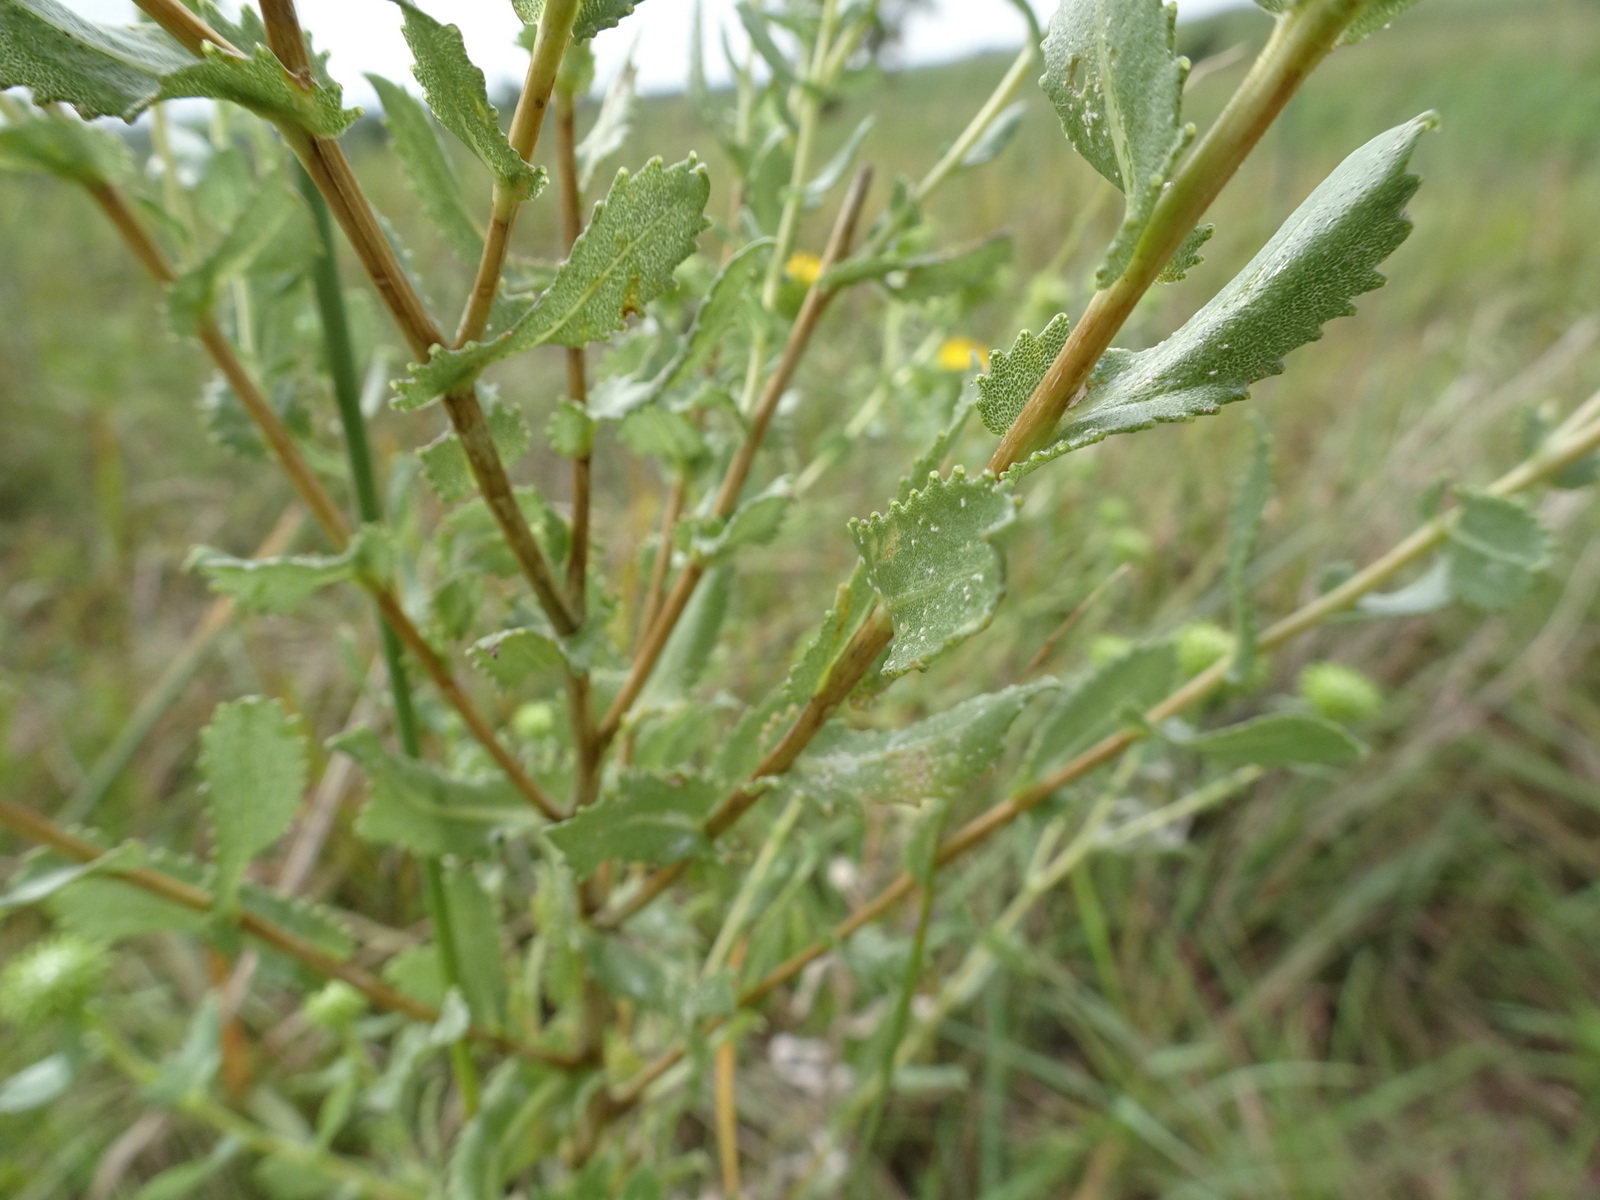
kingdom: Plantae
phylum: Tracheophyta
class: Magnoliopsida
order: Asterales
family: Asteraceae
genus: Grindelia
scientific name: Grindelia squarrosa
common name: Curly-cup gumweed
